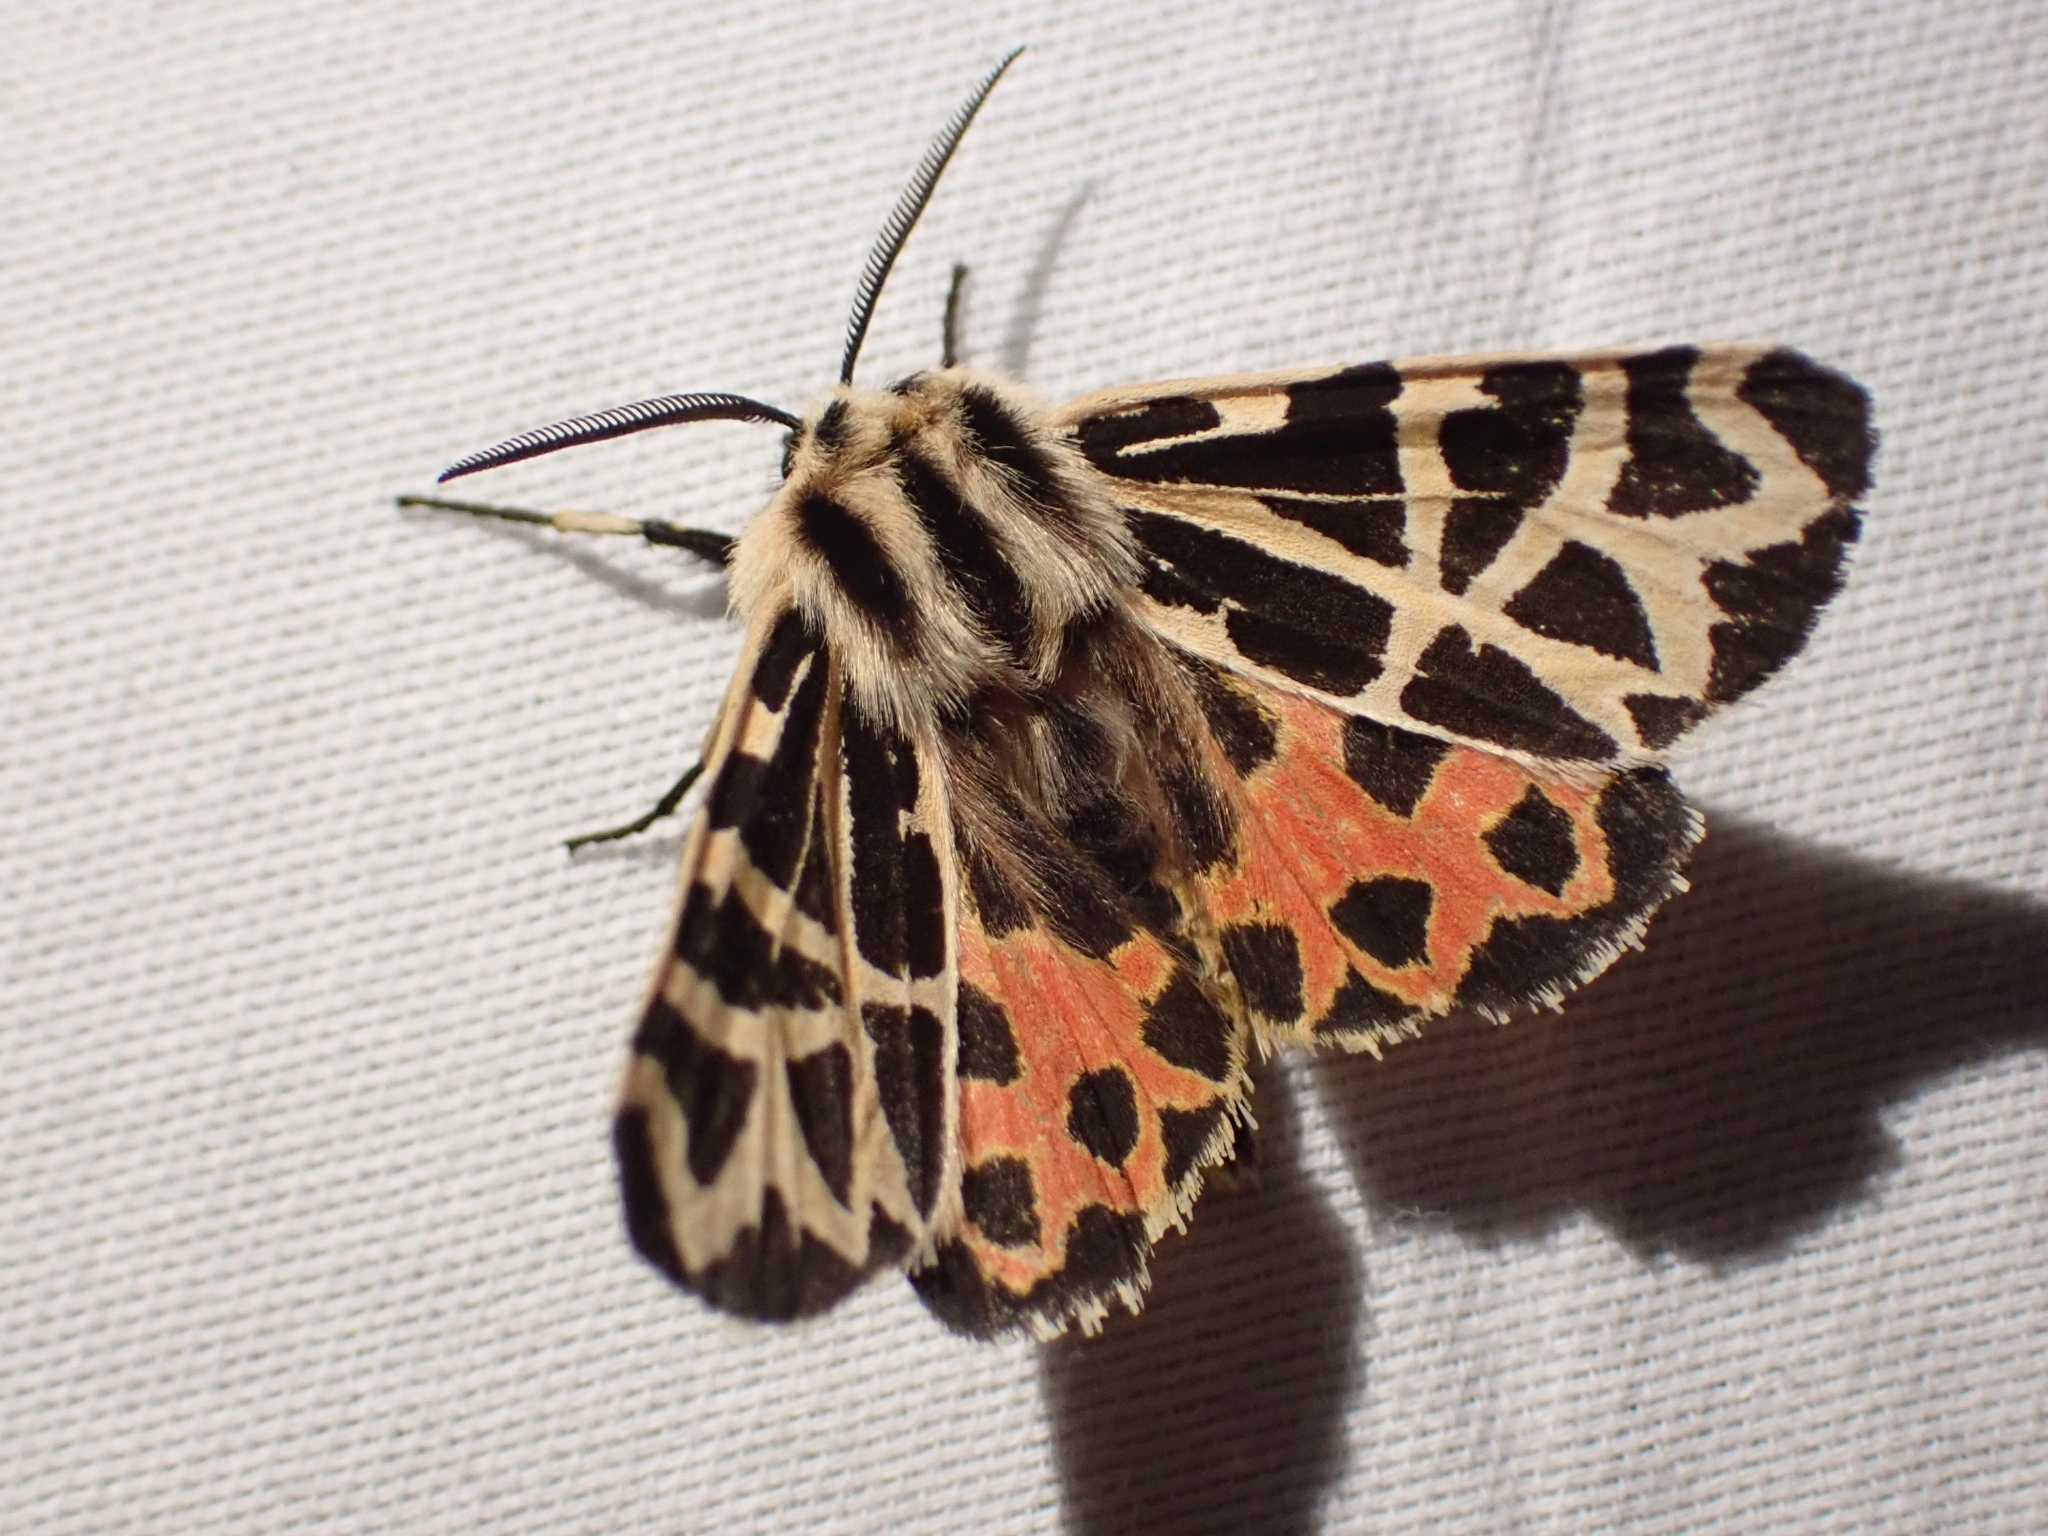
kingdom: Animalia
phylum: Arthropoda
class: Insecta
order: Lepidoptera
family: Erebidae
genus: Apantesis
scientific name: Apantesis
